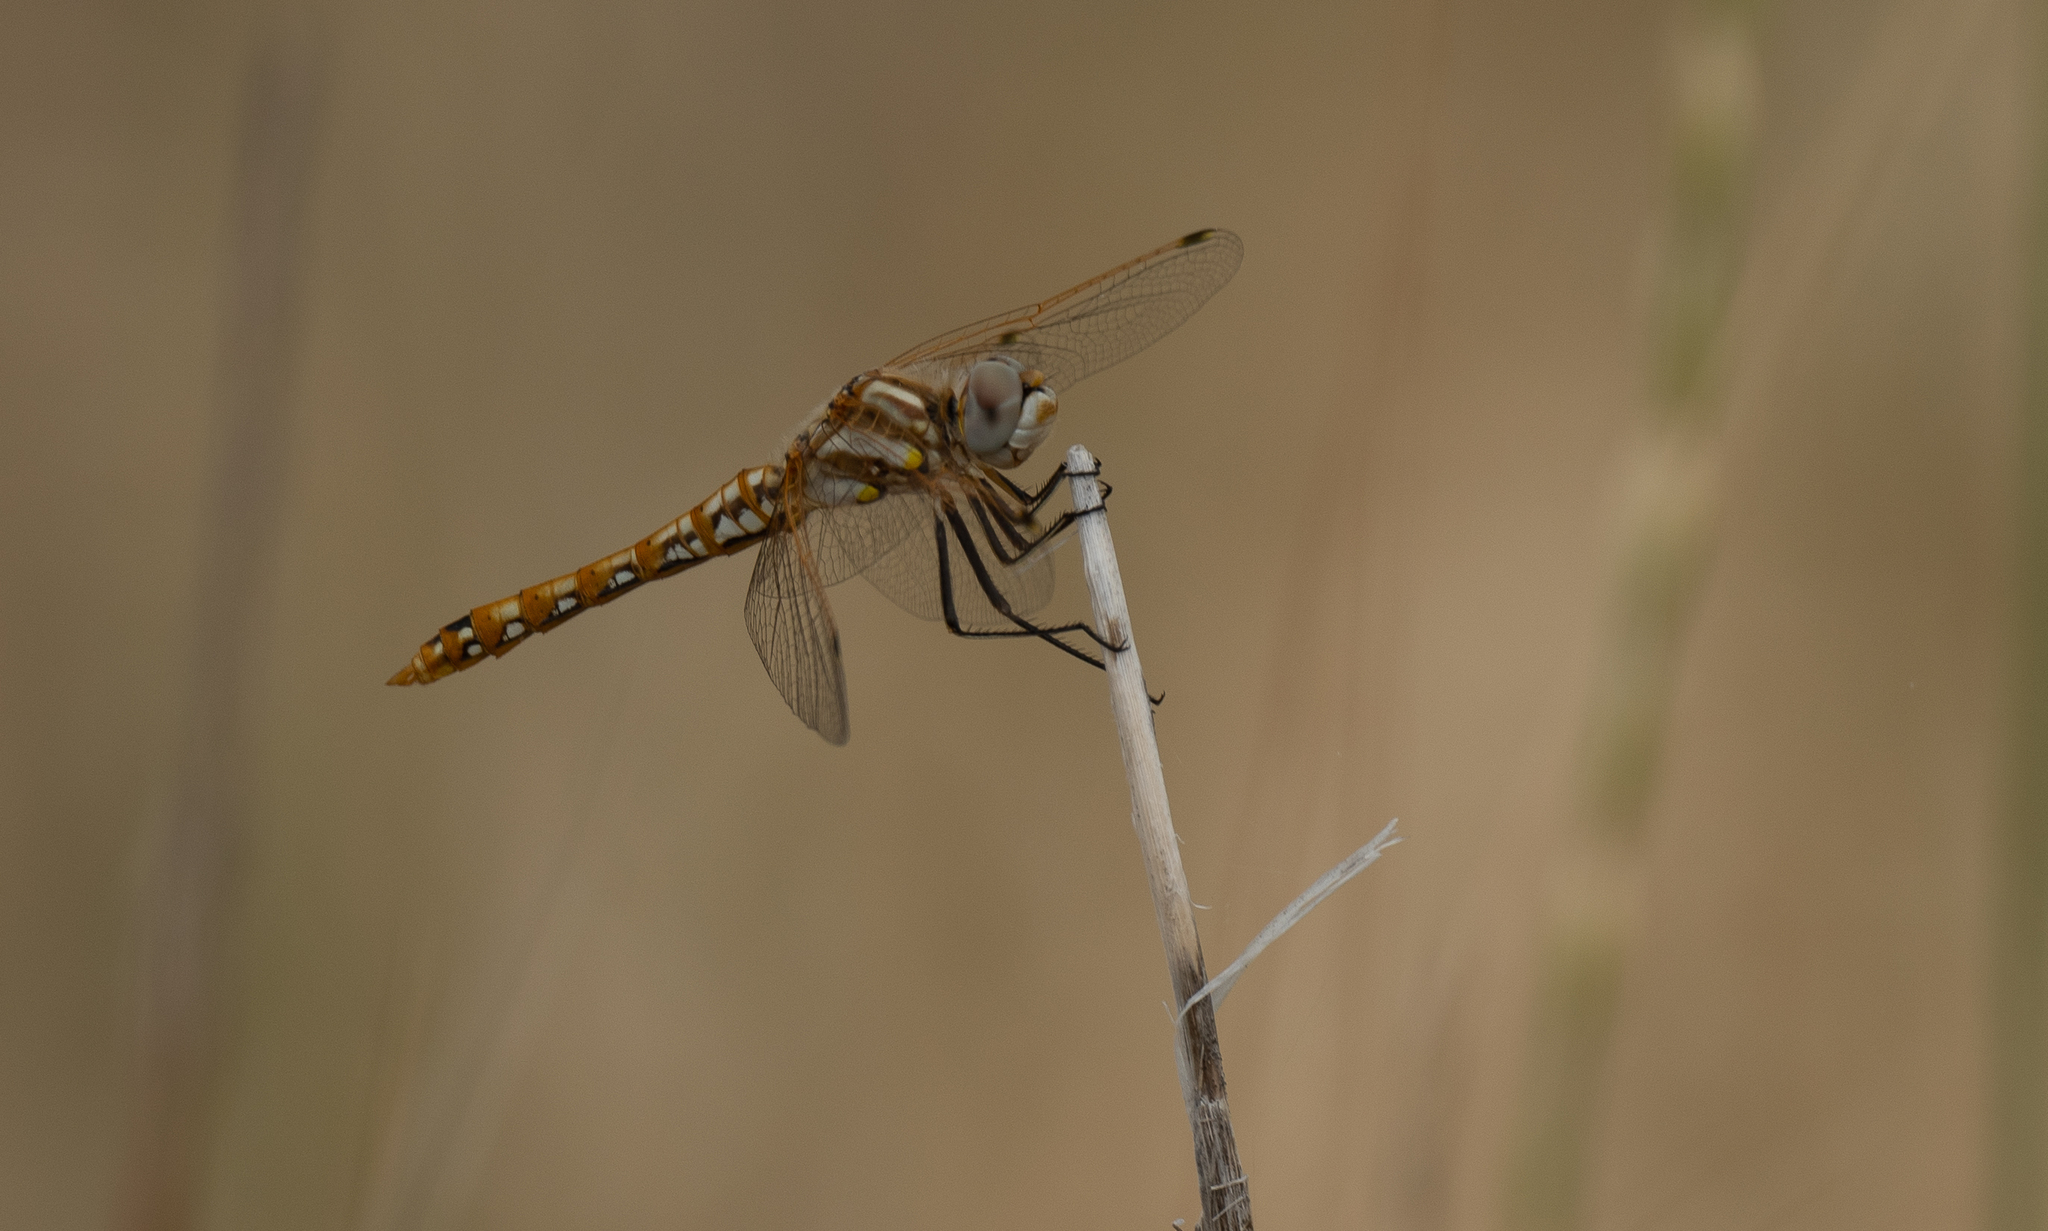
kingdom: Animalia
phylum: Arthropoda
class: Insecta
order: Odonata
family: Libellulidae
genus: Sympetrum
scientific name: Sympetrum corruptum
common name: Variegated meadowhawk
